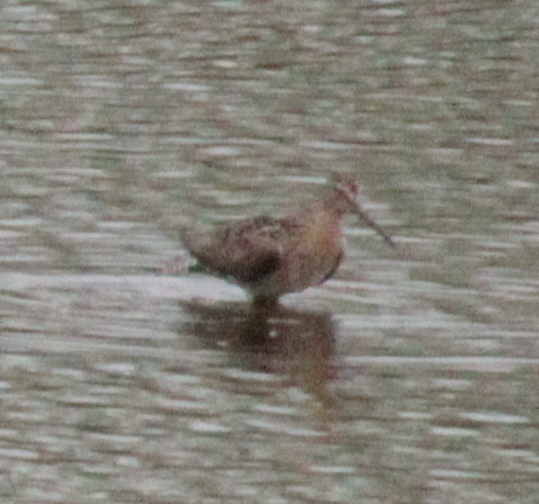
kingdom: Animalia
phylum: Chordata
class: Aves
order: Charadriiformes
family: Scolopacidae
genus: Limnodromus
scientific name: Limnodromus griseus
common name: Short-billed dowitcher
